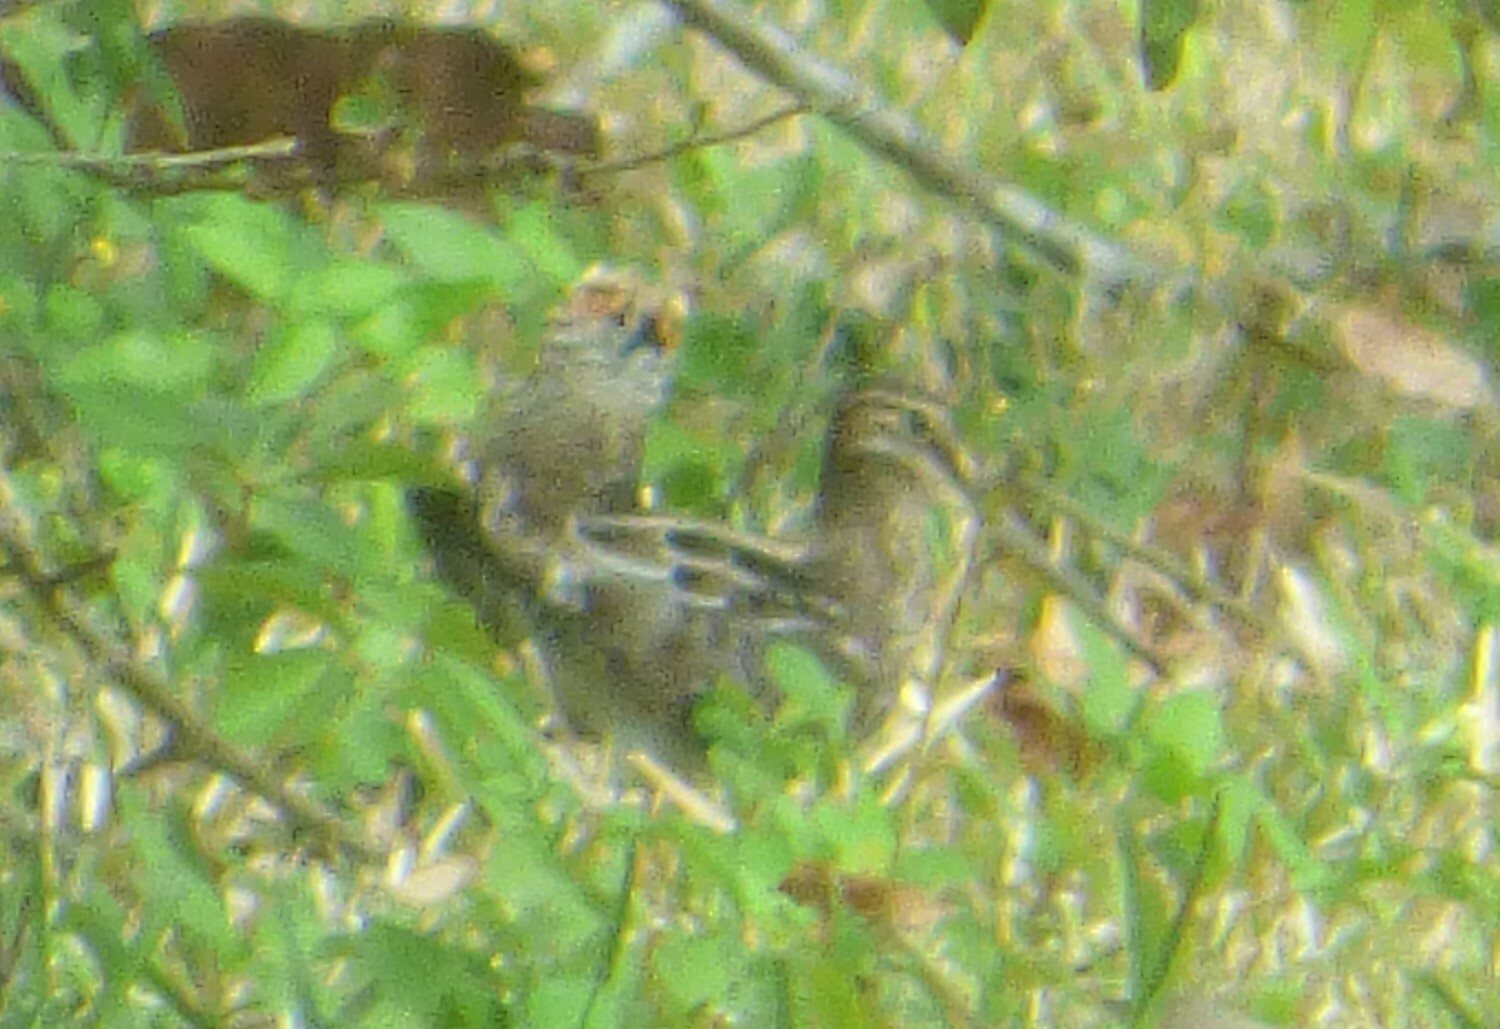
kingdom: Animalia
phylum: Chordata
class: Aves
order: Charadriiformes
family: Scolopacidae
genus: Gallinago
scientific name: Gallinago delicata
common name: Wilson's snipe
